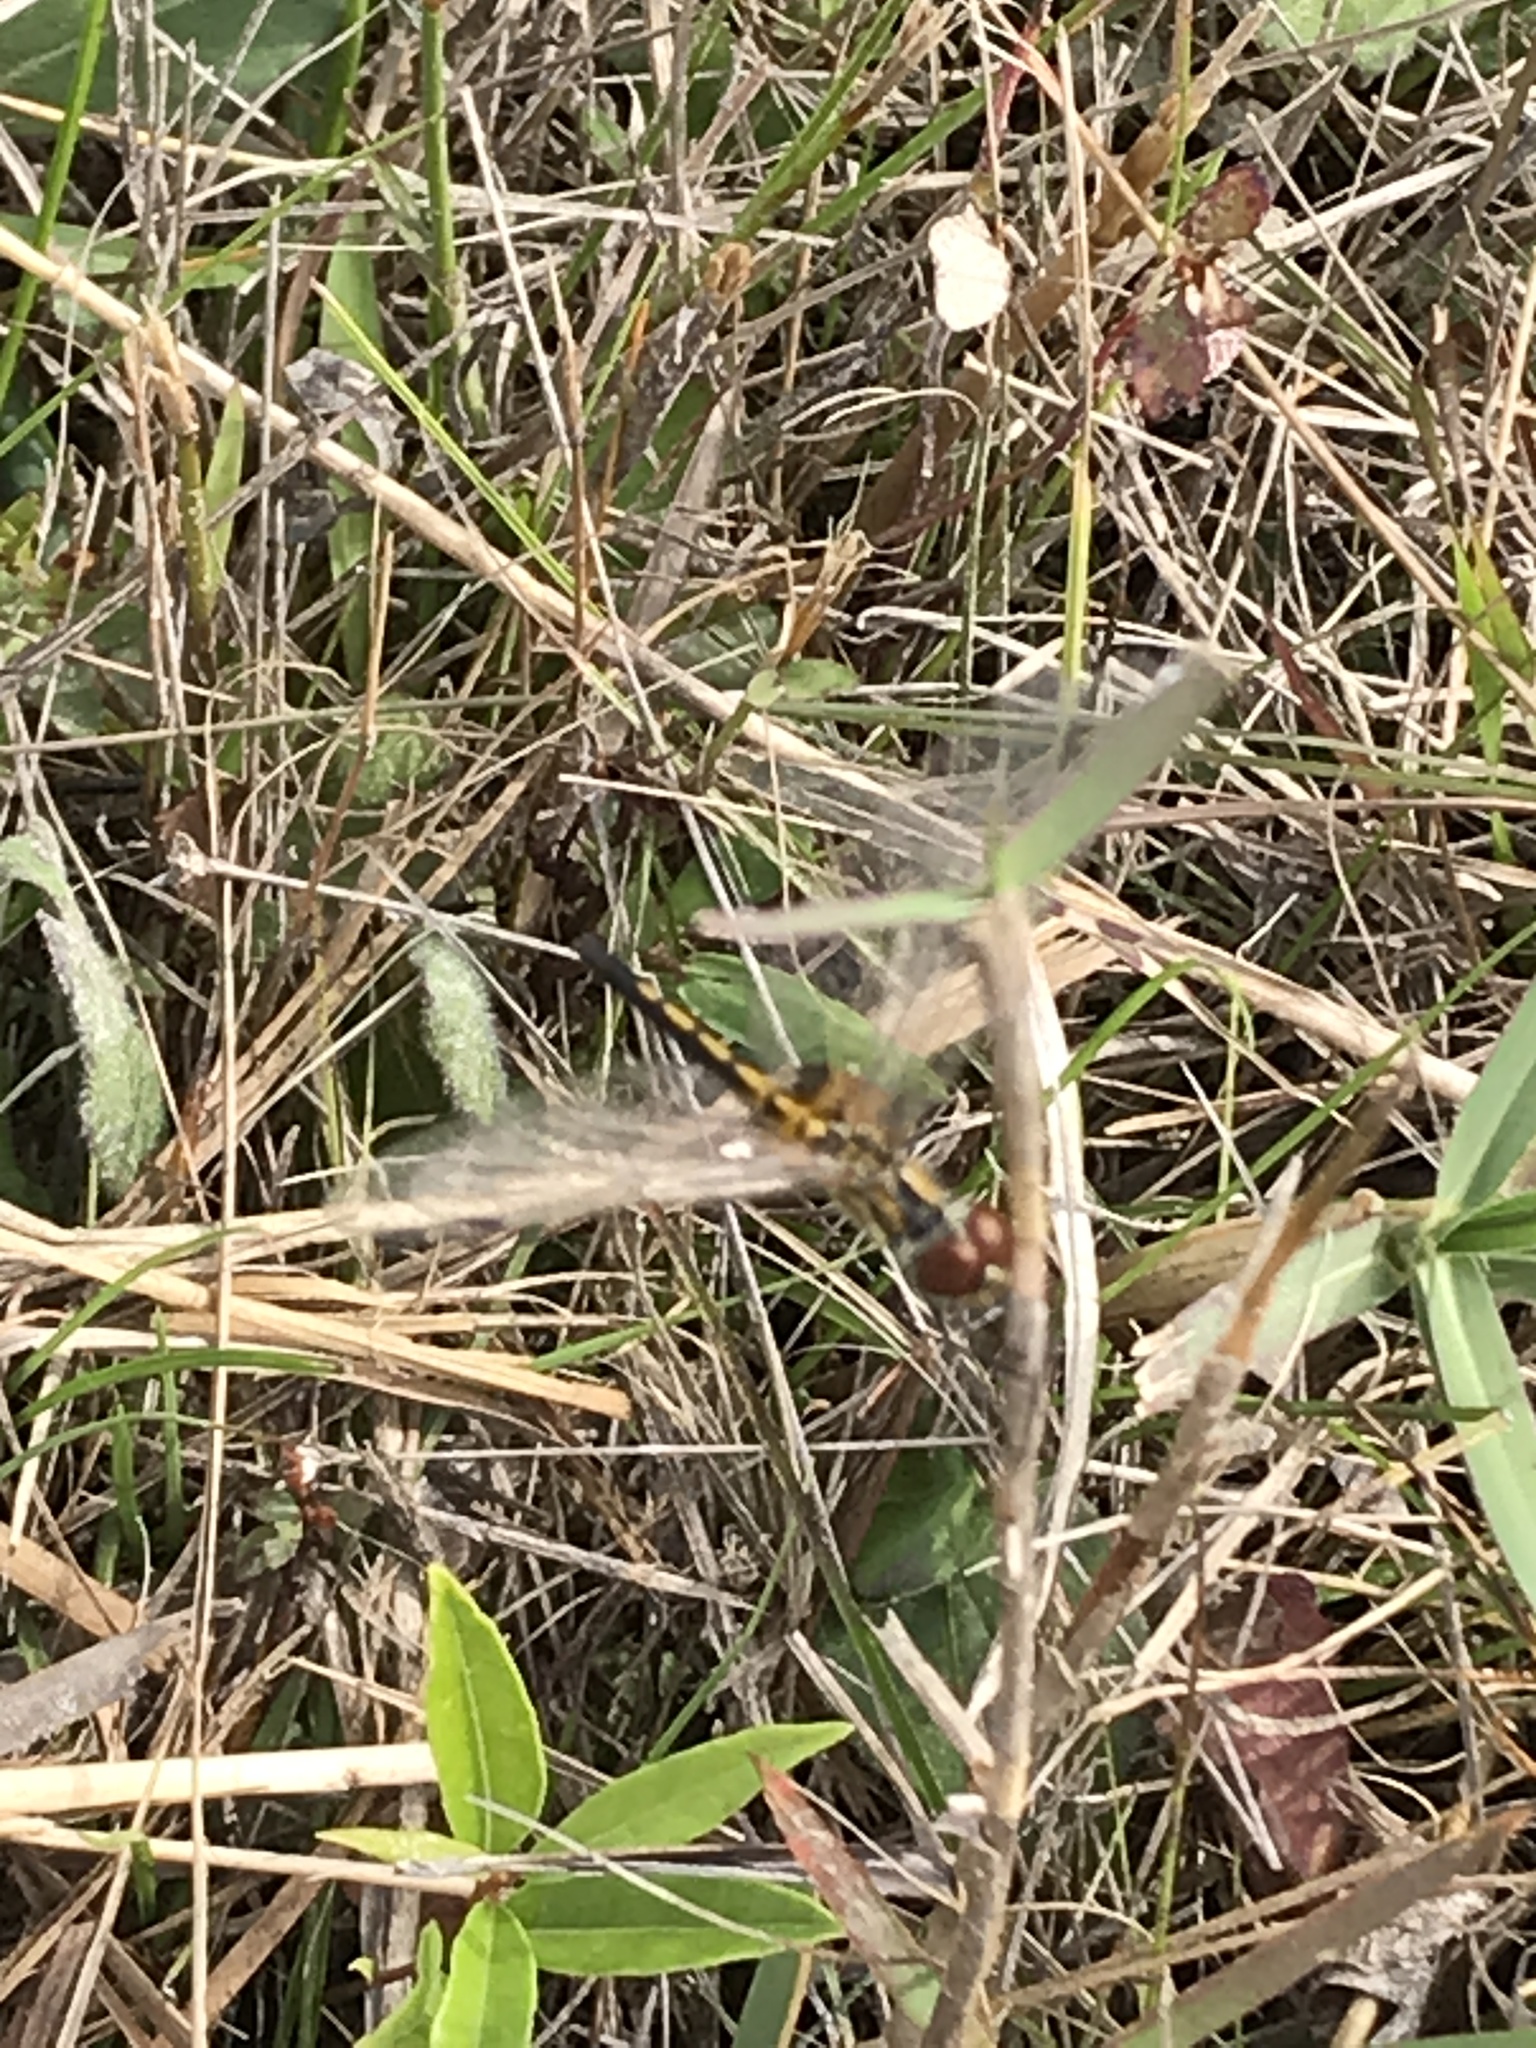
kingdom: Animalia
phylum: Arthropoda
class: Insecta
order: Odonata
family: Libellulidae
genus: Celithemis
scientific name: Celithemis ornata
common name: Ornate pennant
